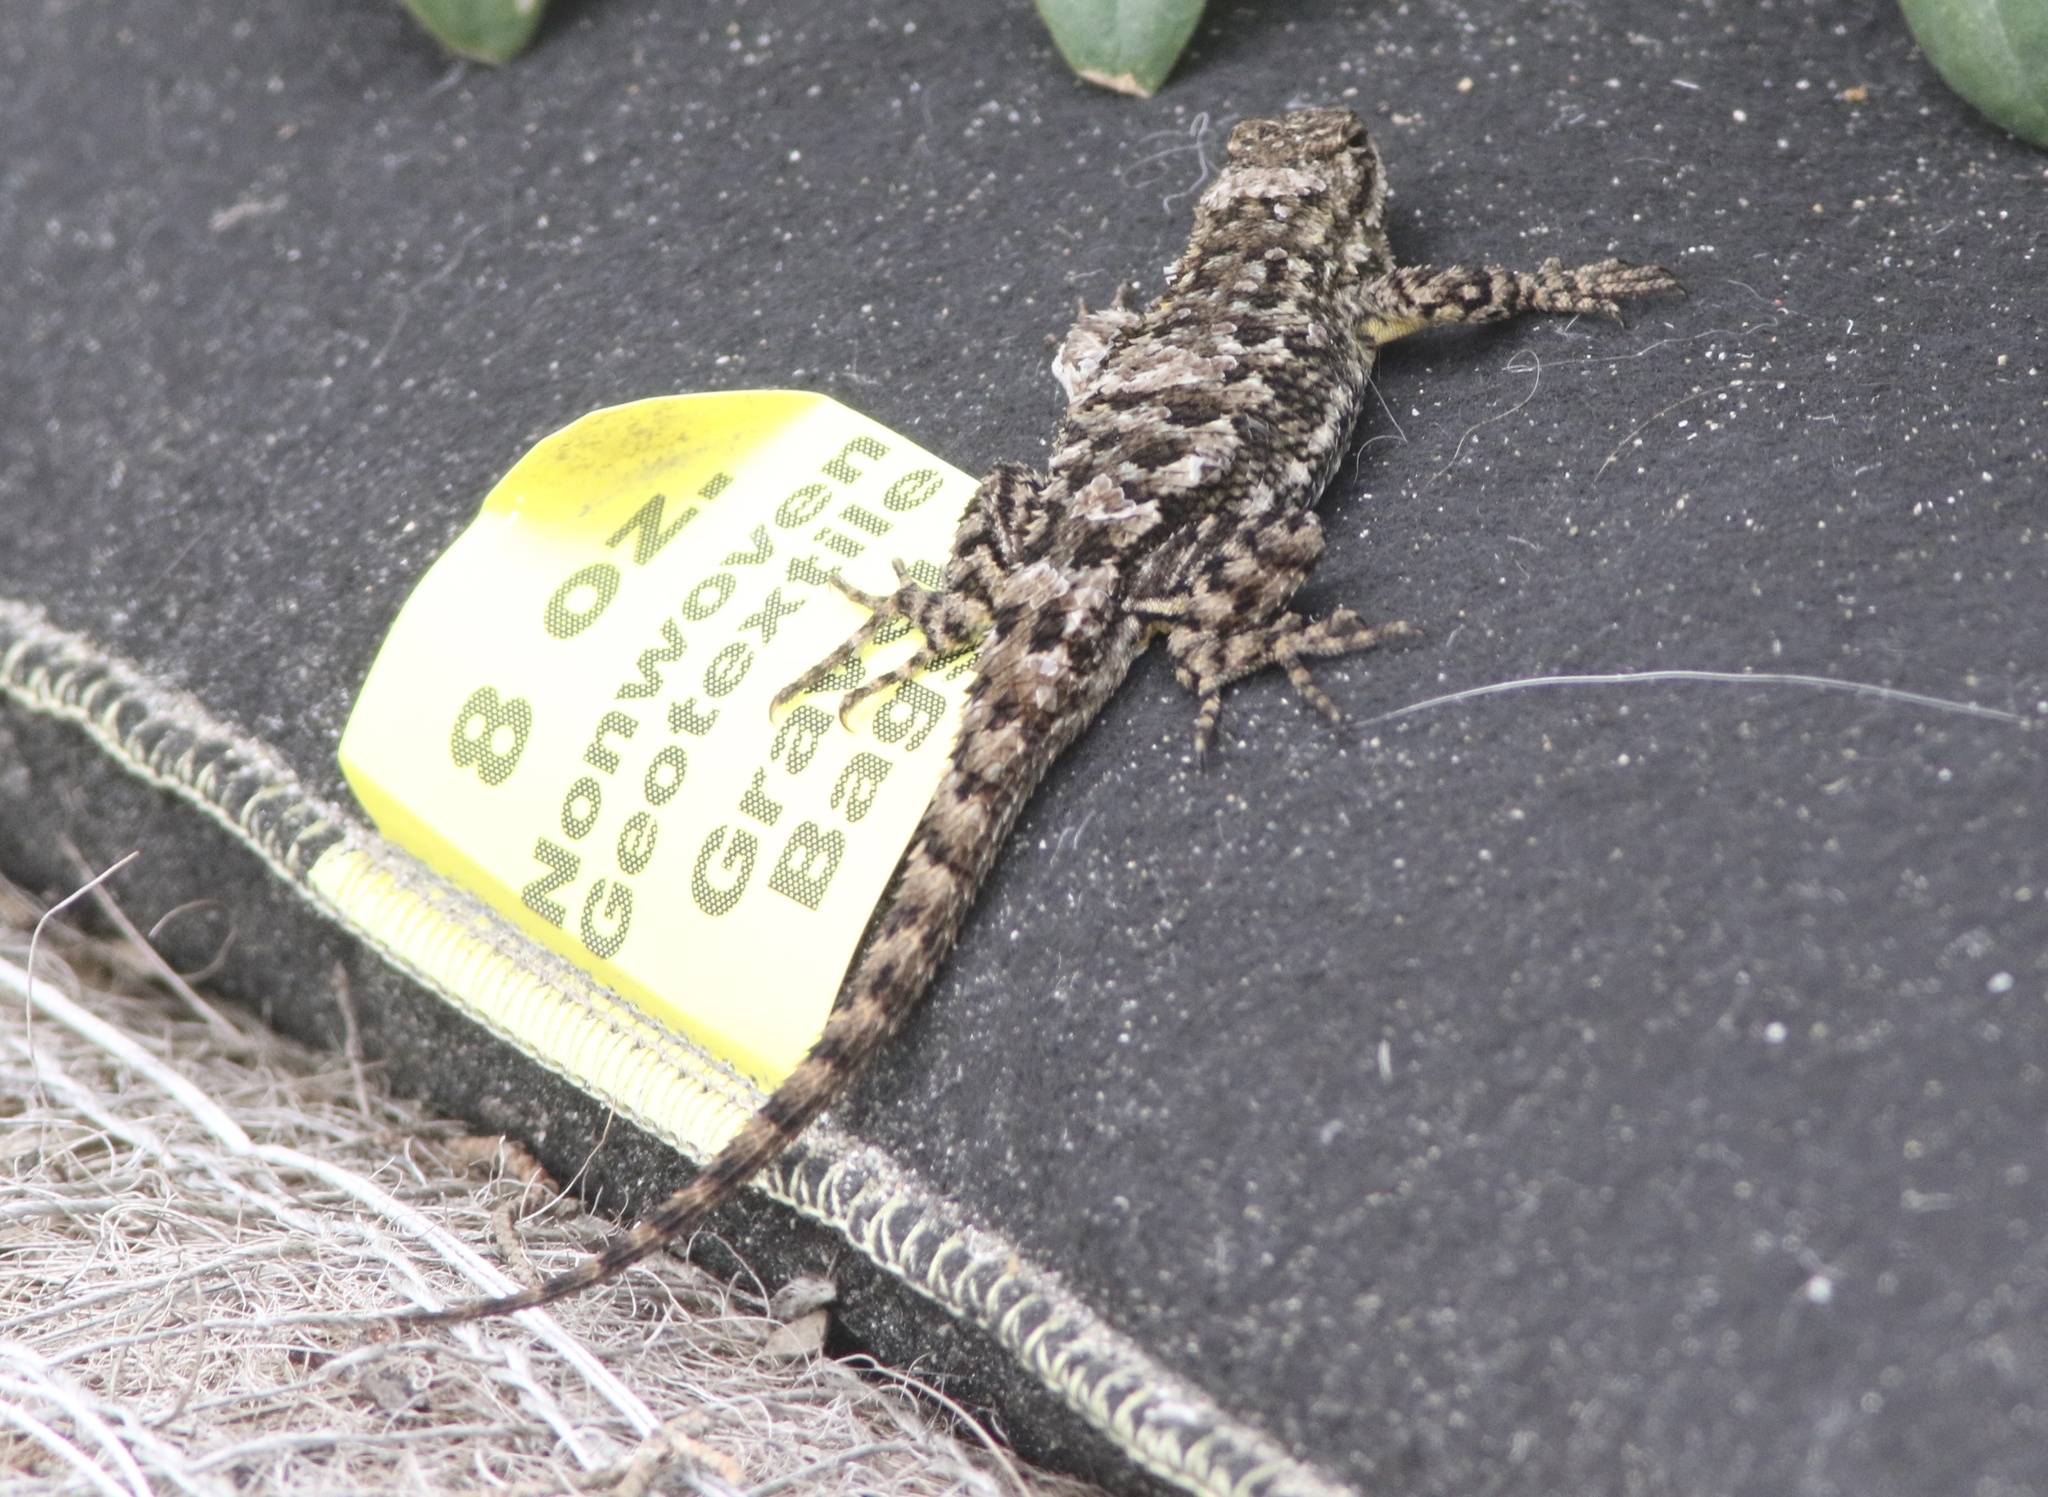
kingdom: Animalia
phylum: Chordata
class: Squamata
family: Phrynosomatidae
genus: Sceloporus
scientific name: Sceloporus occidentalis
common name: Western fence lizard
